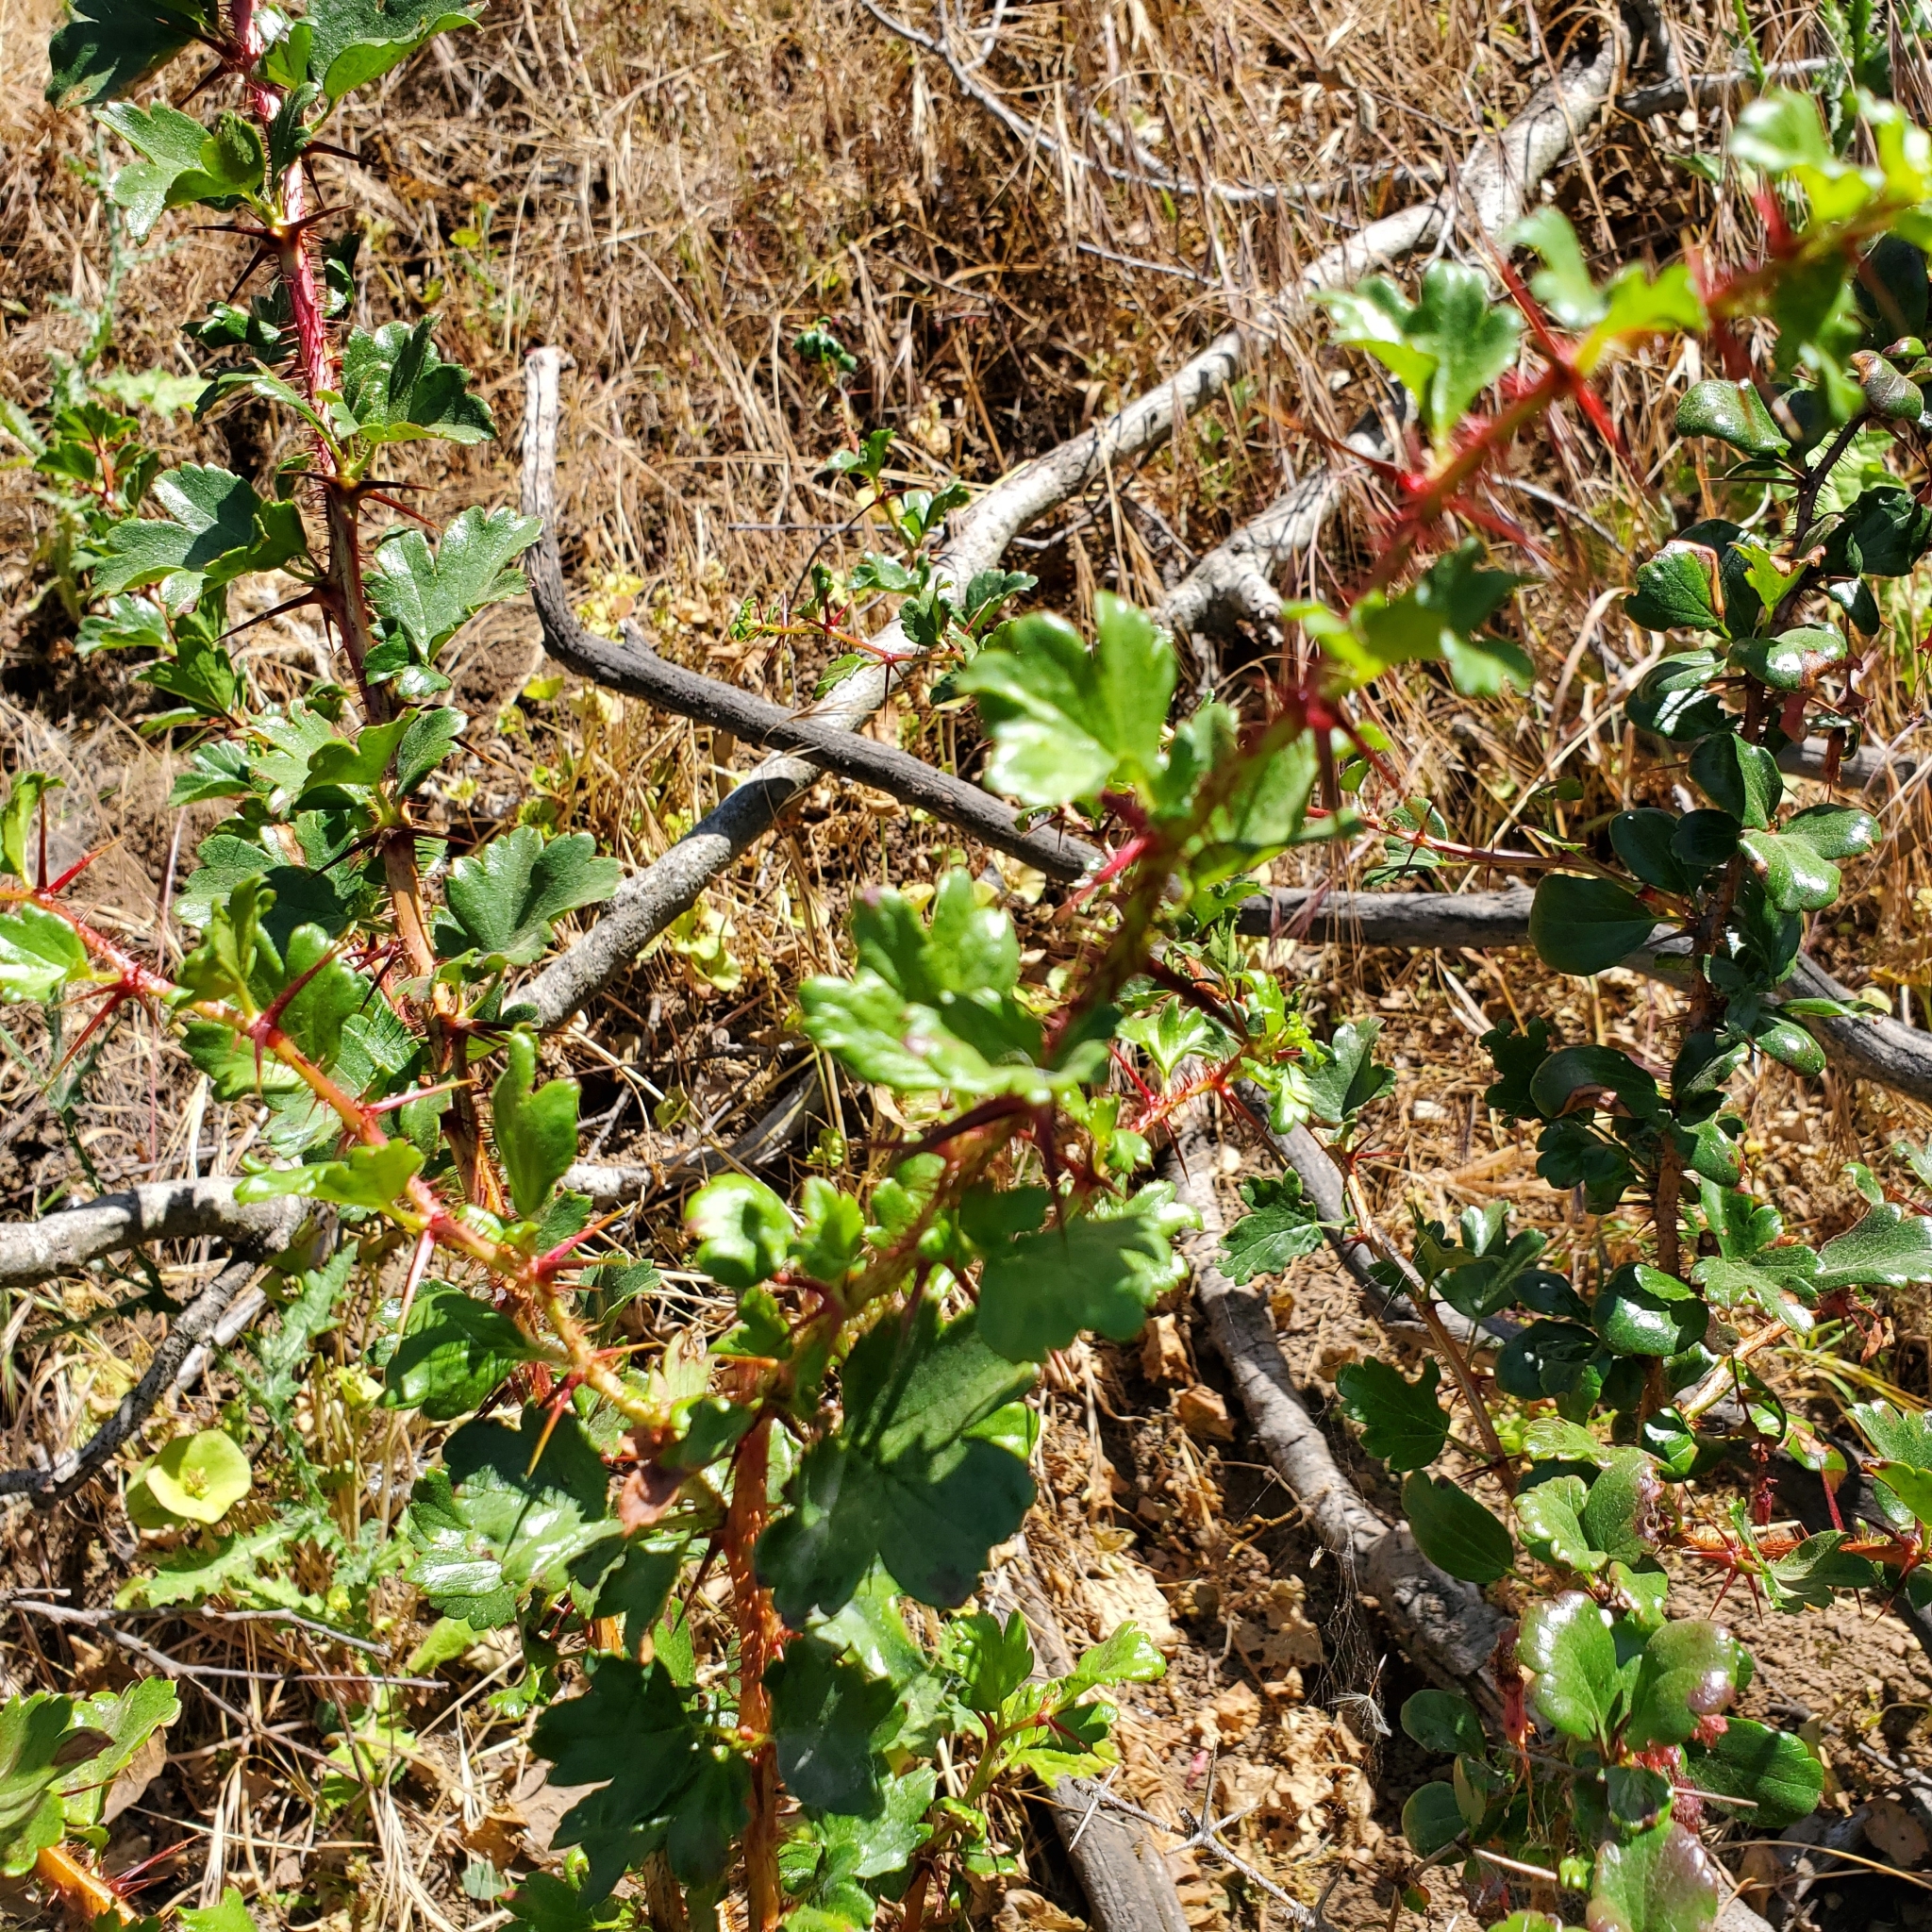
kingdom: Plantae
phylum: Tracheophyta
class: Magnoliopsida
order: Saxifragales
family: Grossulariaceae
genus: Ribes
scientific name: Ribes speciosum
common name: Fuchsia-flower gooseberry
